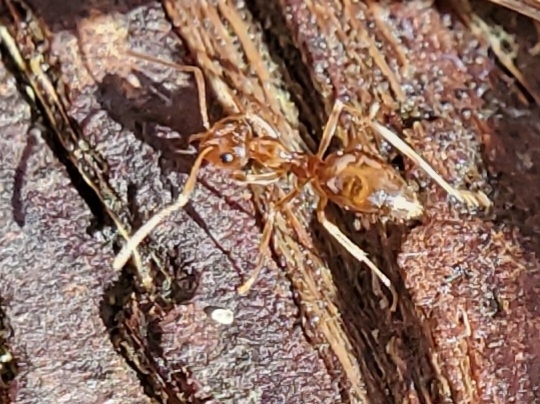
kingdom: Animalia
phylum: Arthropoda
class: Insecta
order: Hymenoptera
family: Formicidae
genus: Prenolepis
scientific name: Prenolepis imparis
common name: Small honey ant
